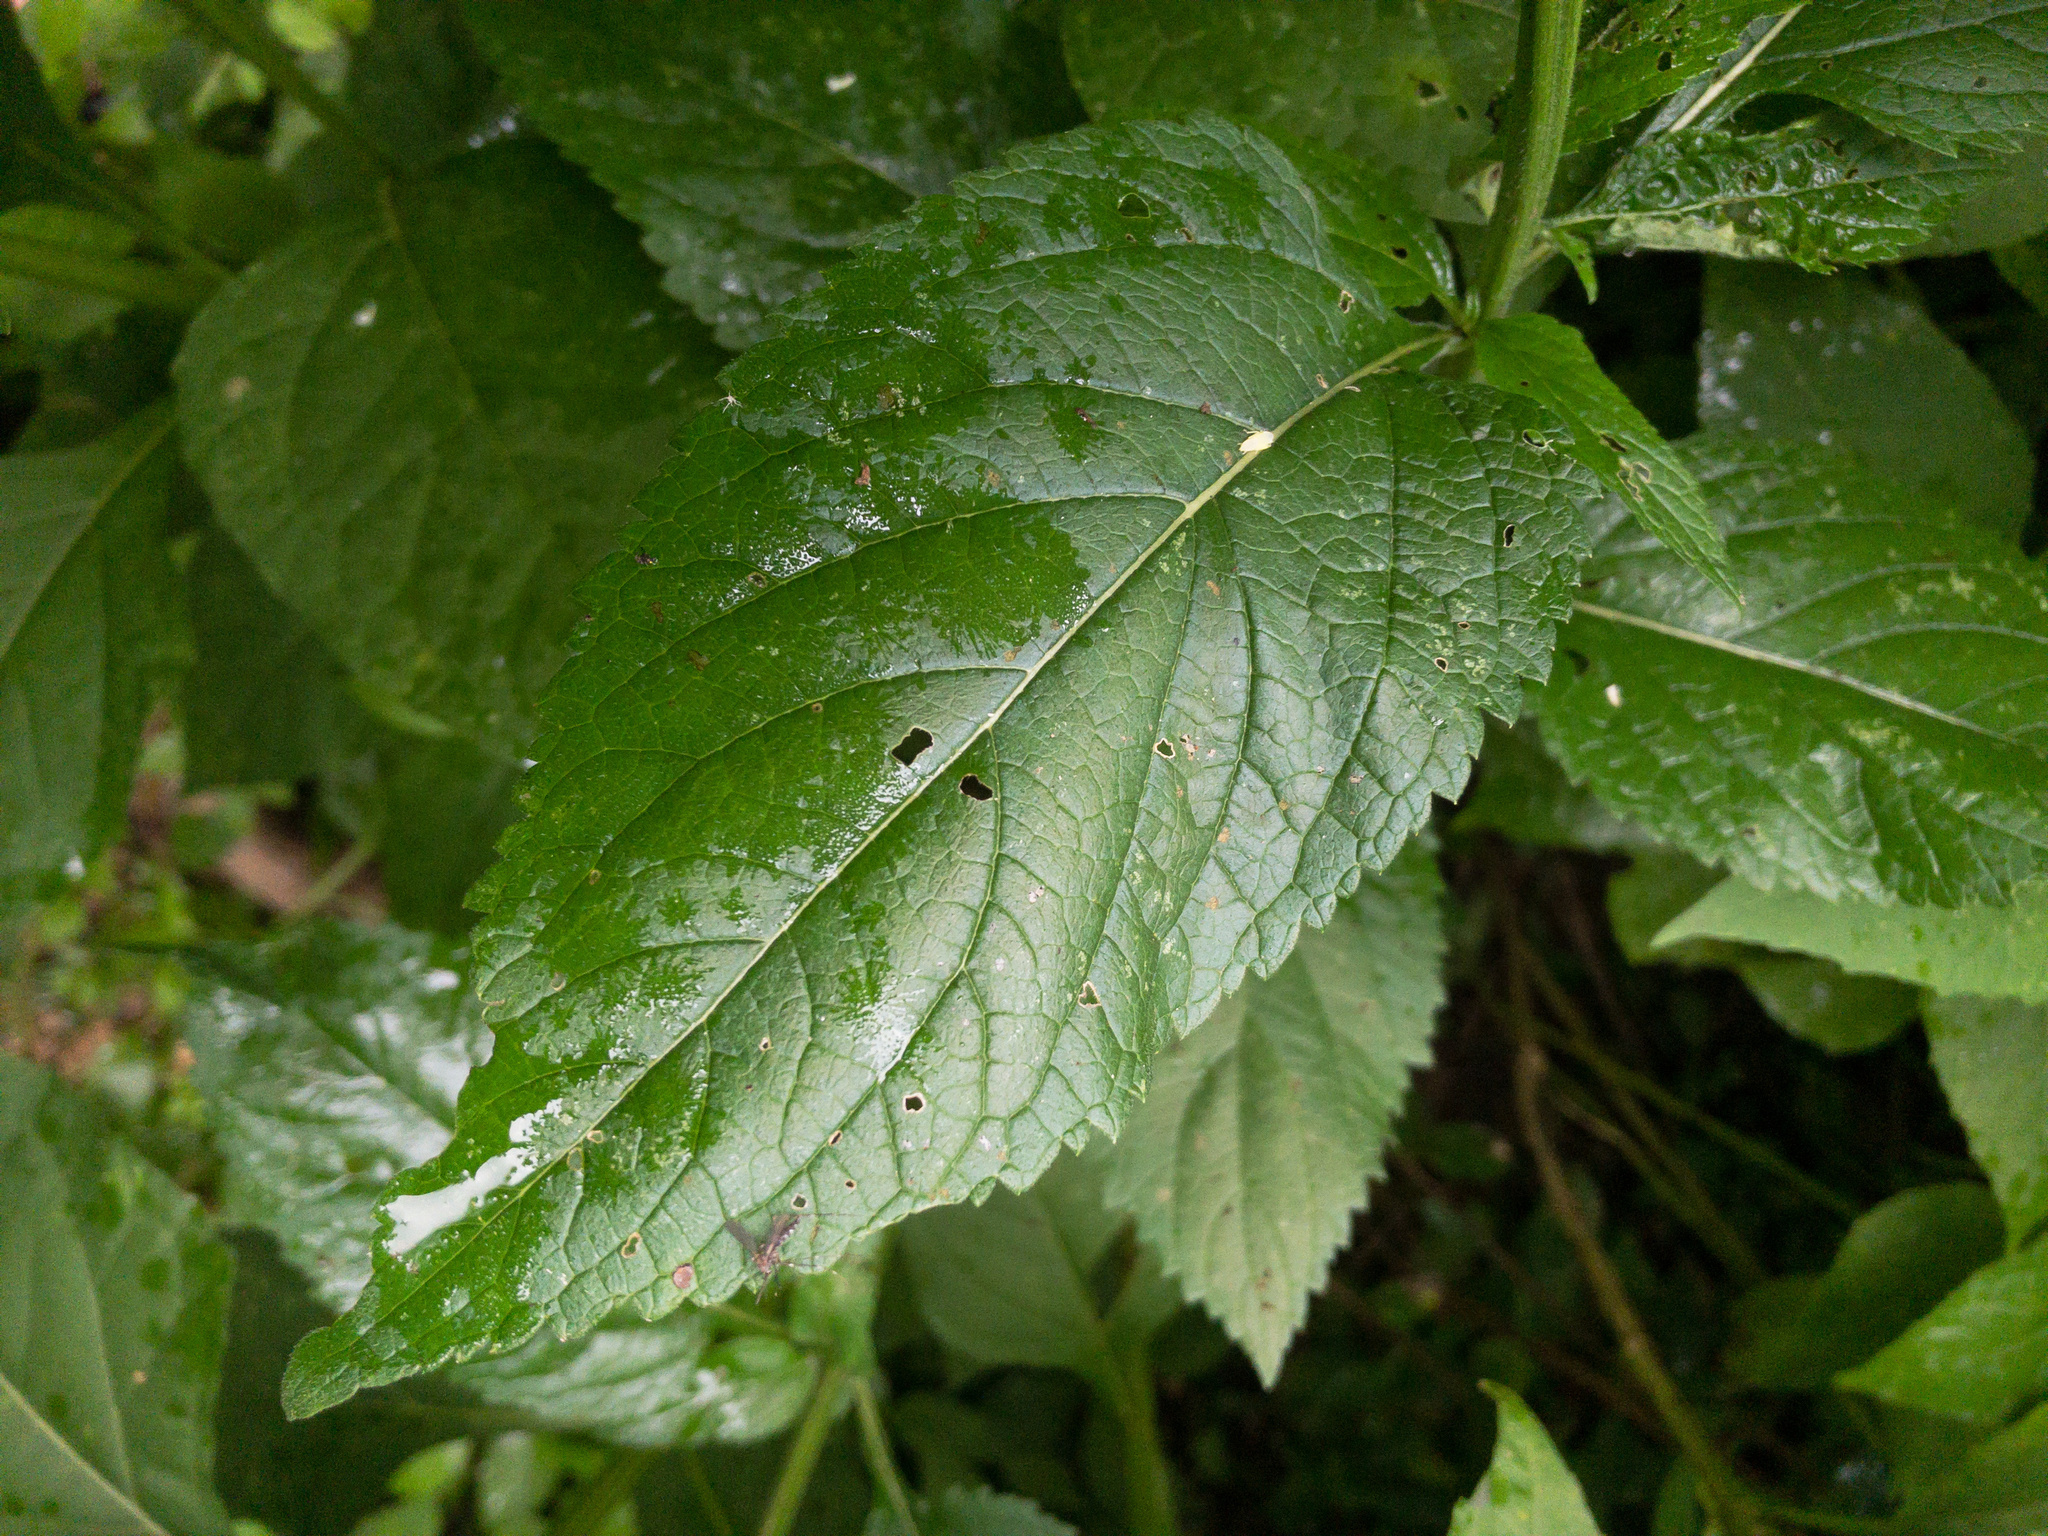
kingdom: Plantae
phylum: Tracheophyta
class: Magnoliopsida
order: Lamiales
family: Verbenaceae
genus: Verbena
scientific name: Verbena urticifolia
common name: Nettle-leaved vervain
